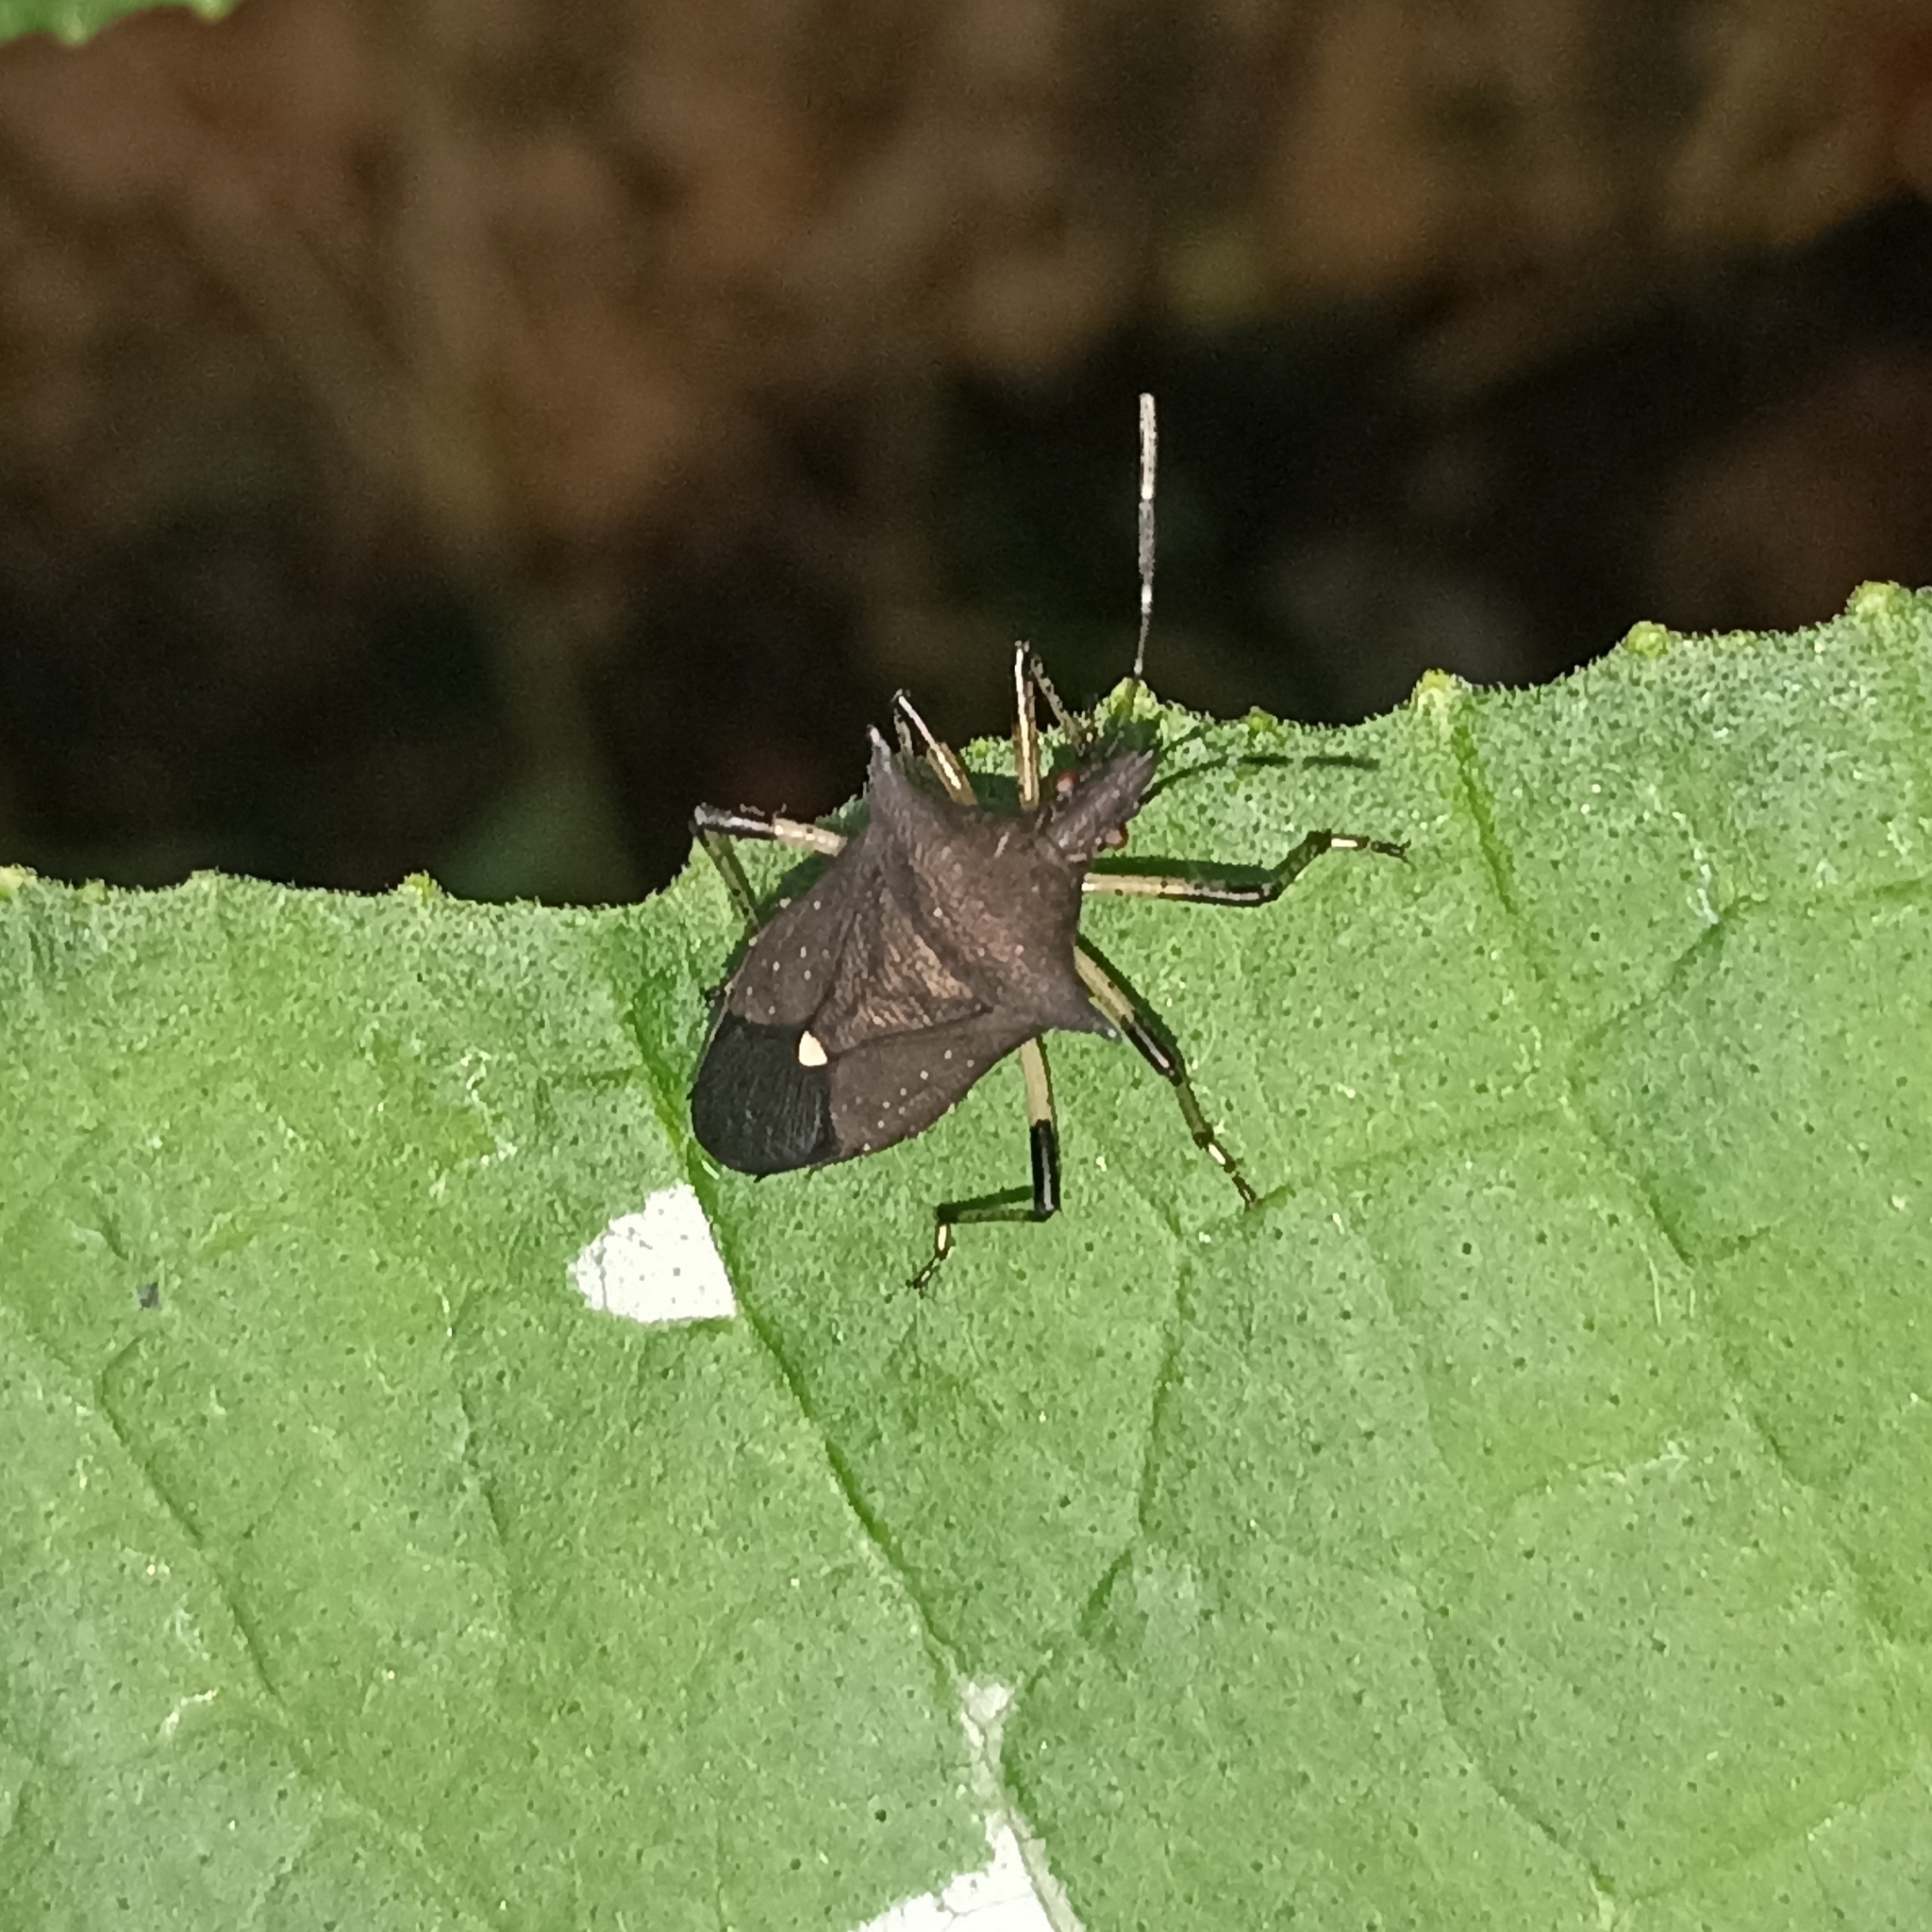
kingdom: Animalia
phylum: Arthropoda
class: Insecta
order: Hemiptera
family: Pentatomidae
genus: Proxys
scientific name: Proxys punctulatus
